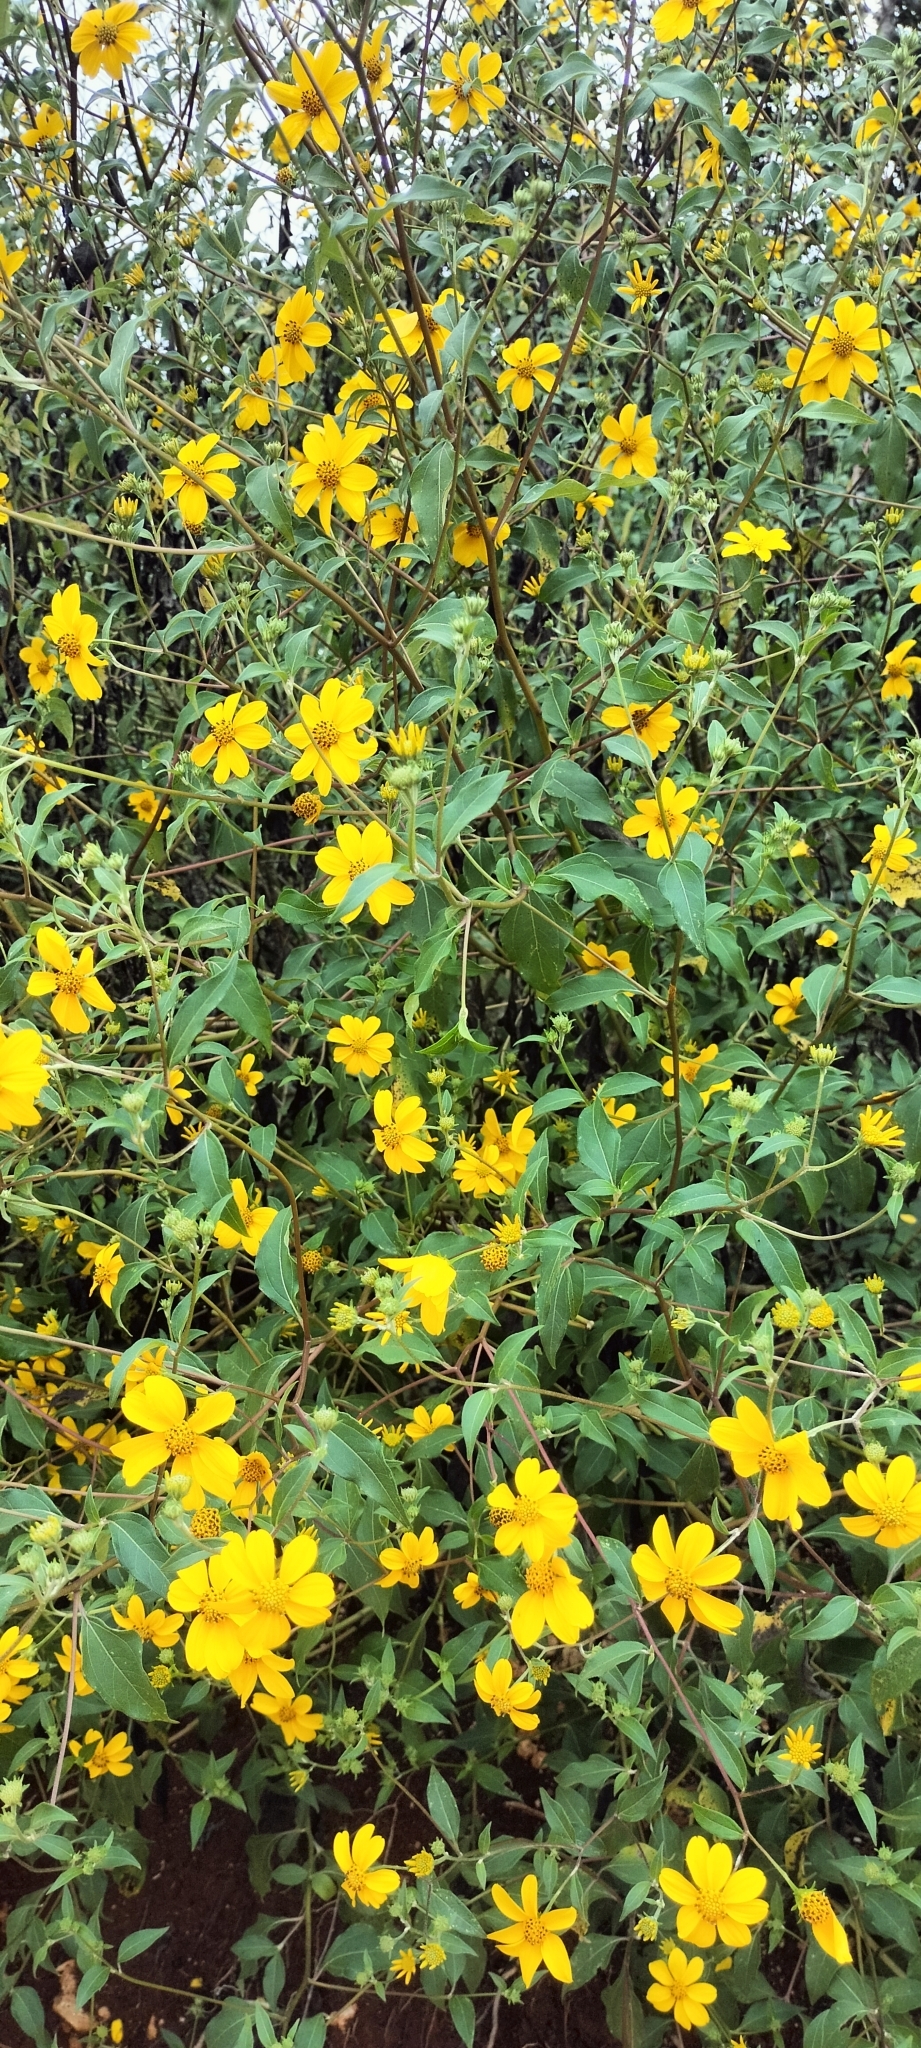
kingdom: Plantae
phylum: Tracheophyta
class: Magnoliopsida
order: Asterales
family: Asteraceae
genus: Viguiera
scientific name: Viguiera dentata
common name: Toothleaf
